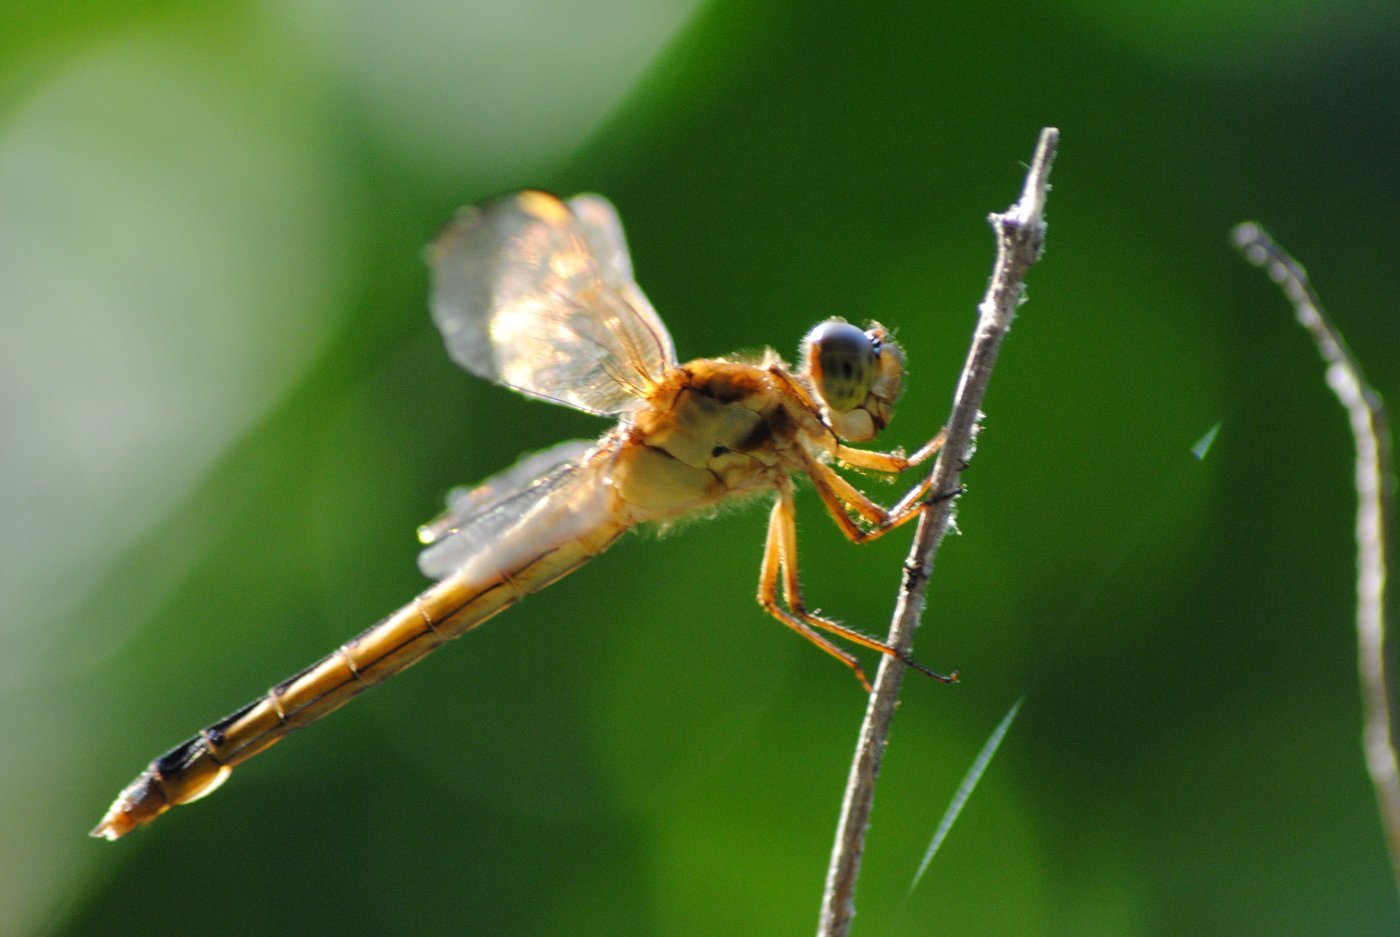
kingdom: Animalia
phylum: Arthropoda
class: Insecta
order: Odonata
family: Libellulidae
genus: Libellula
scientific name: Libellula needhami
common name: Needham's skimmer
